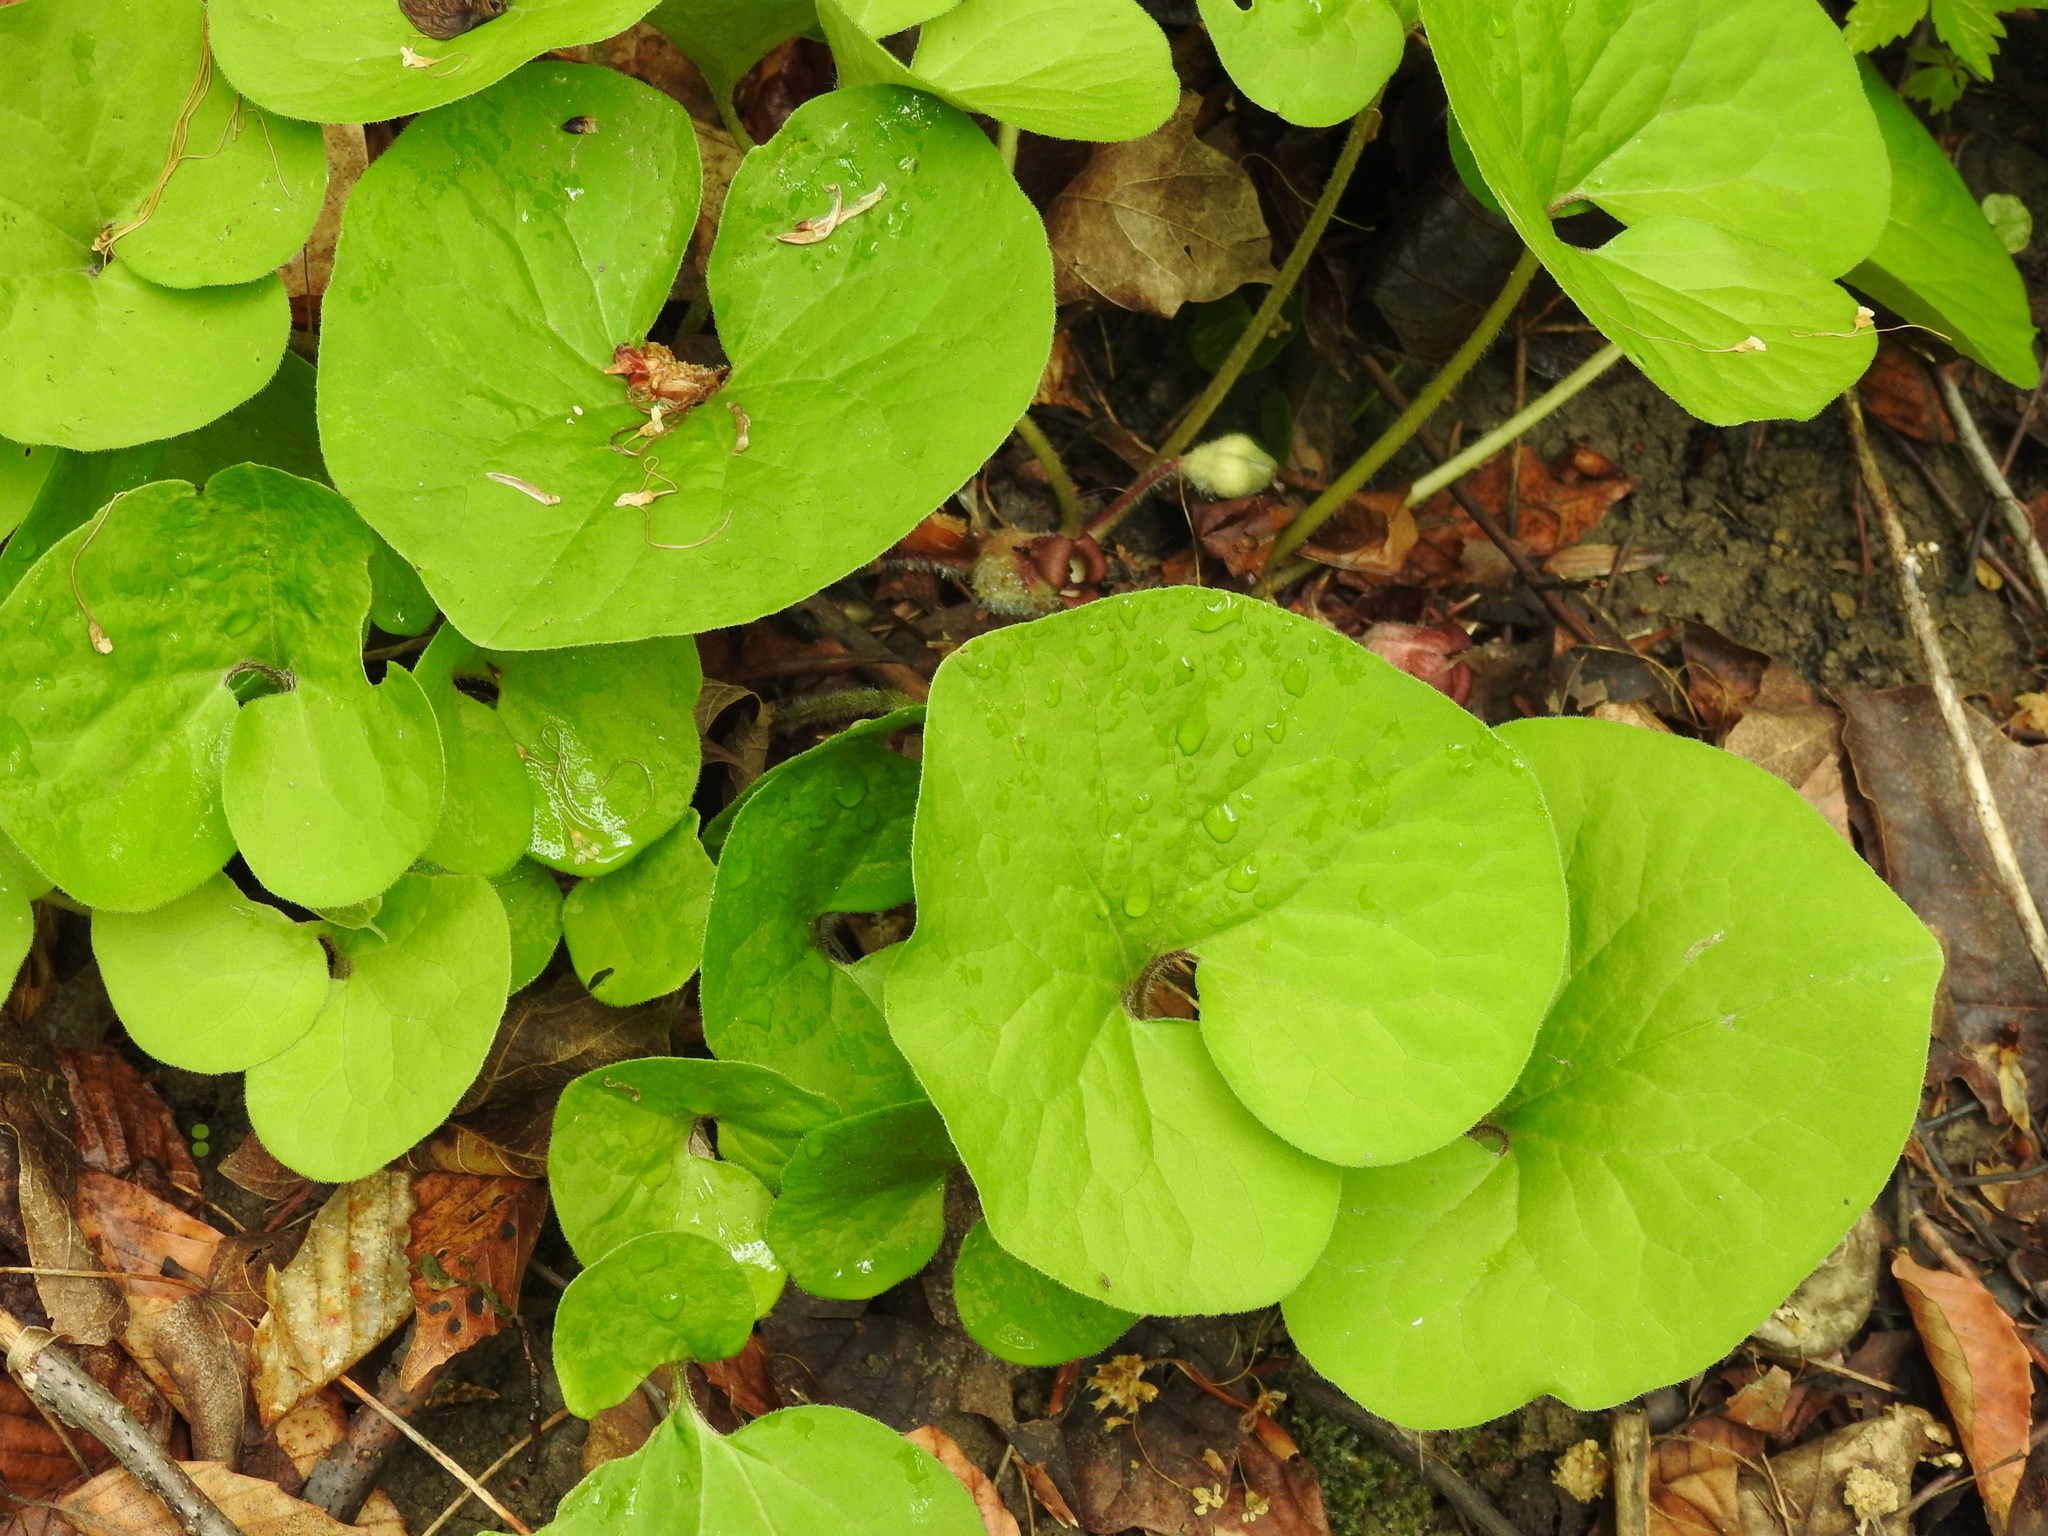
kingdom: Plantae
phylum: Tracheophyta
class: Magnoliopsida
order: Piperales
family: Aristolochiaceae
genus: Asarum
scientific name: Asarum canadense
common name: Wild ginger
